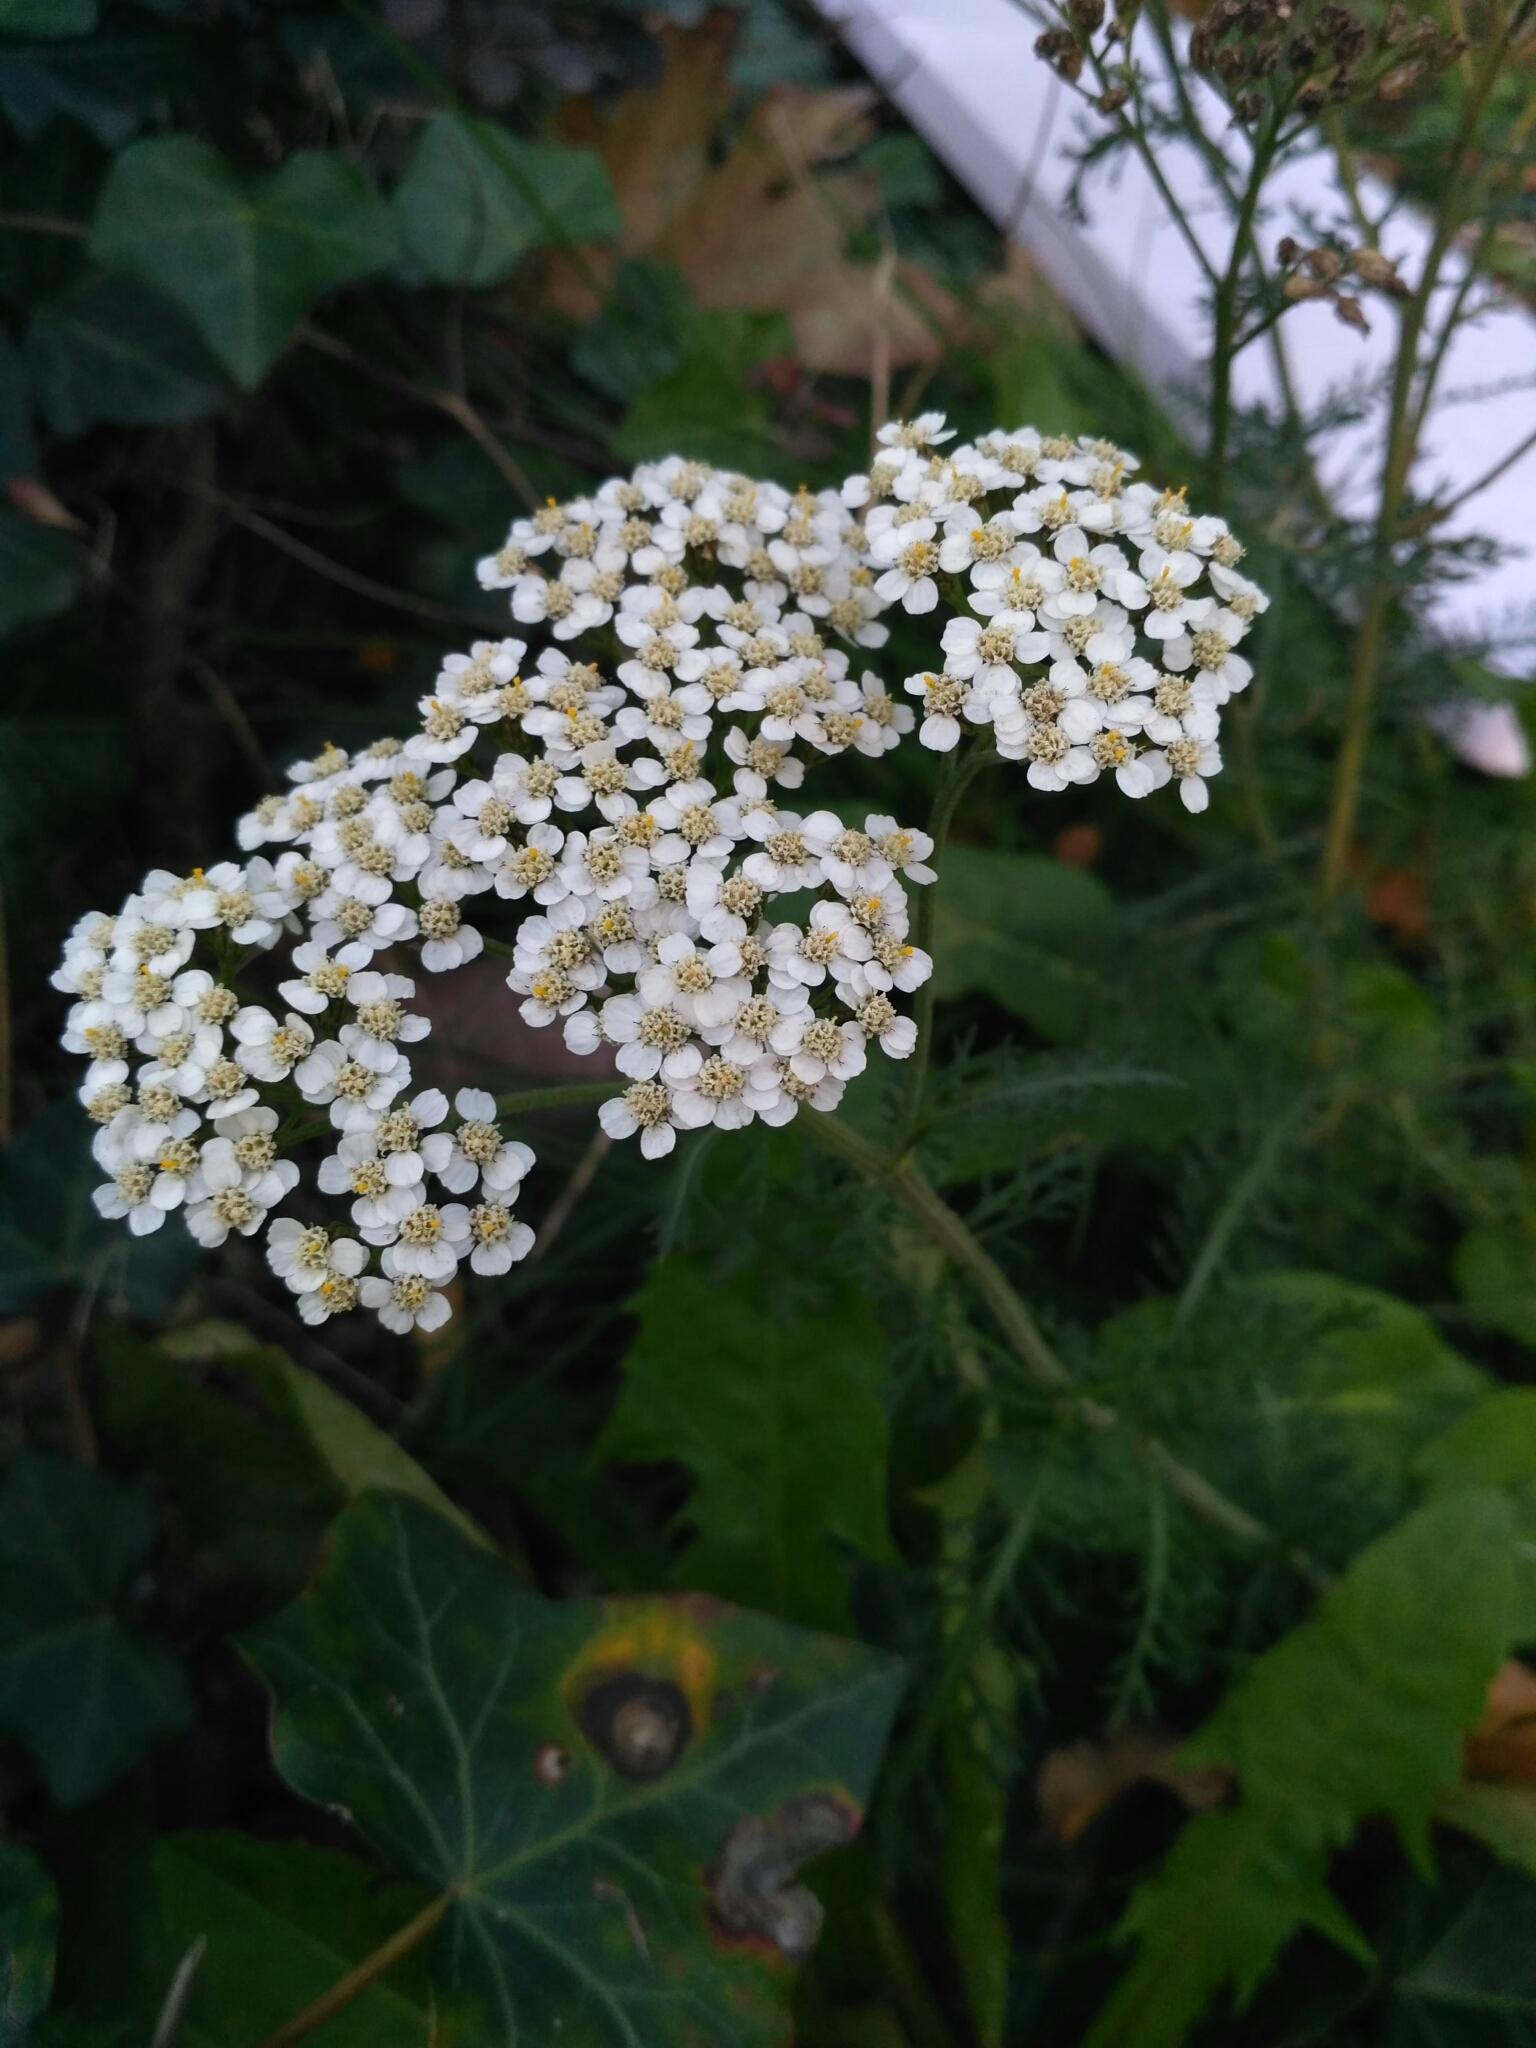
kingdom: Plantae
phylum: Tracheophyta
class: Magnoliopsida
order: Asterales
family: Asteraceae
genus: Achillea
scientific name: Achillea millefolium
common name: Yarrow
